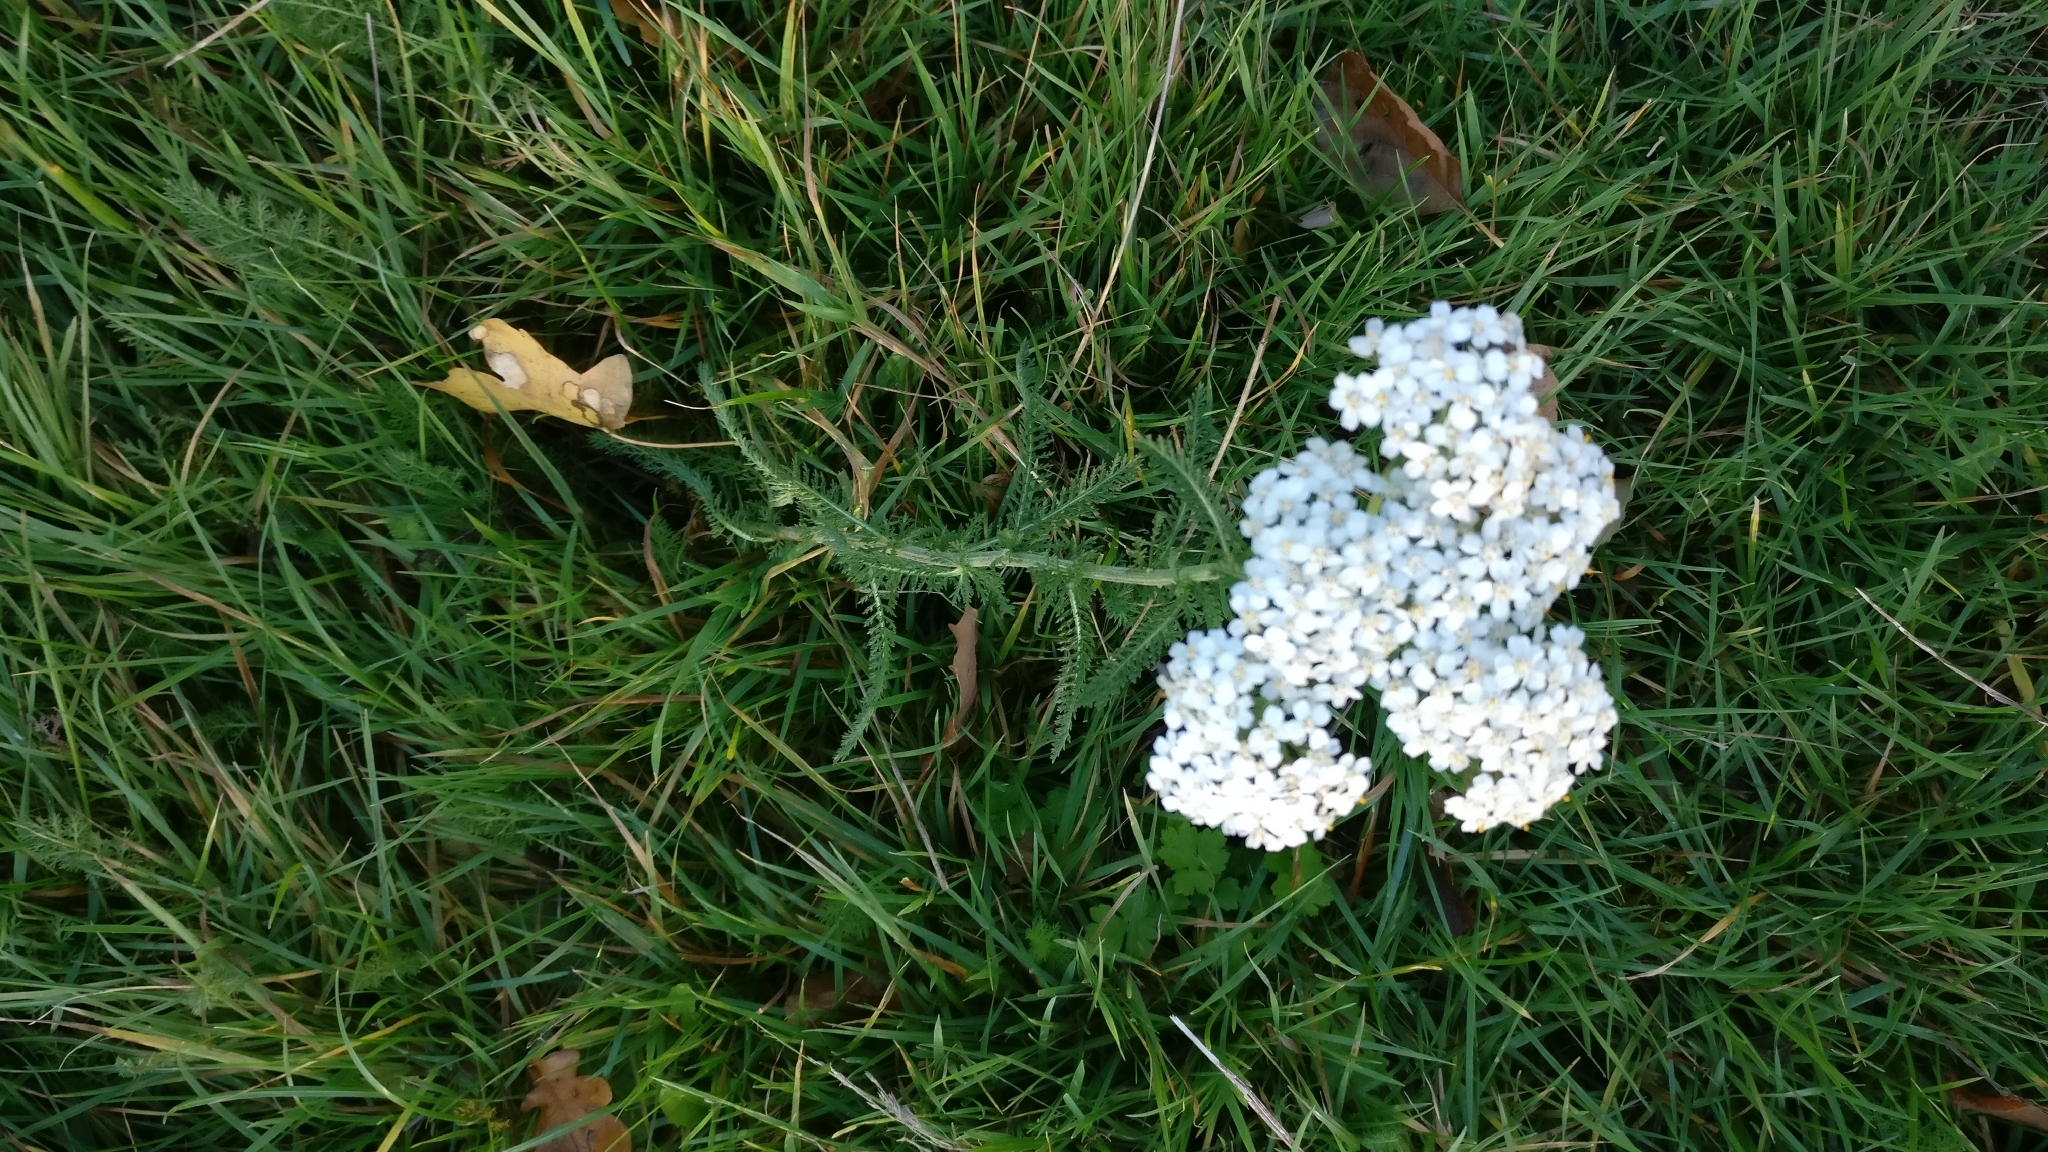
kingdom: Plantae
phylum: Tracheophyta
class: Magnoliopsida
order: Asterales
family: Asteraceae
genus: Achillea
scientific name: Achillea millefolium
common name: Yarrow
